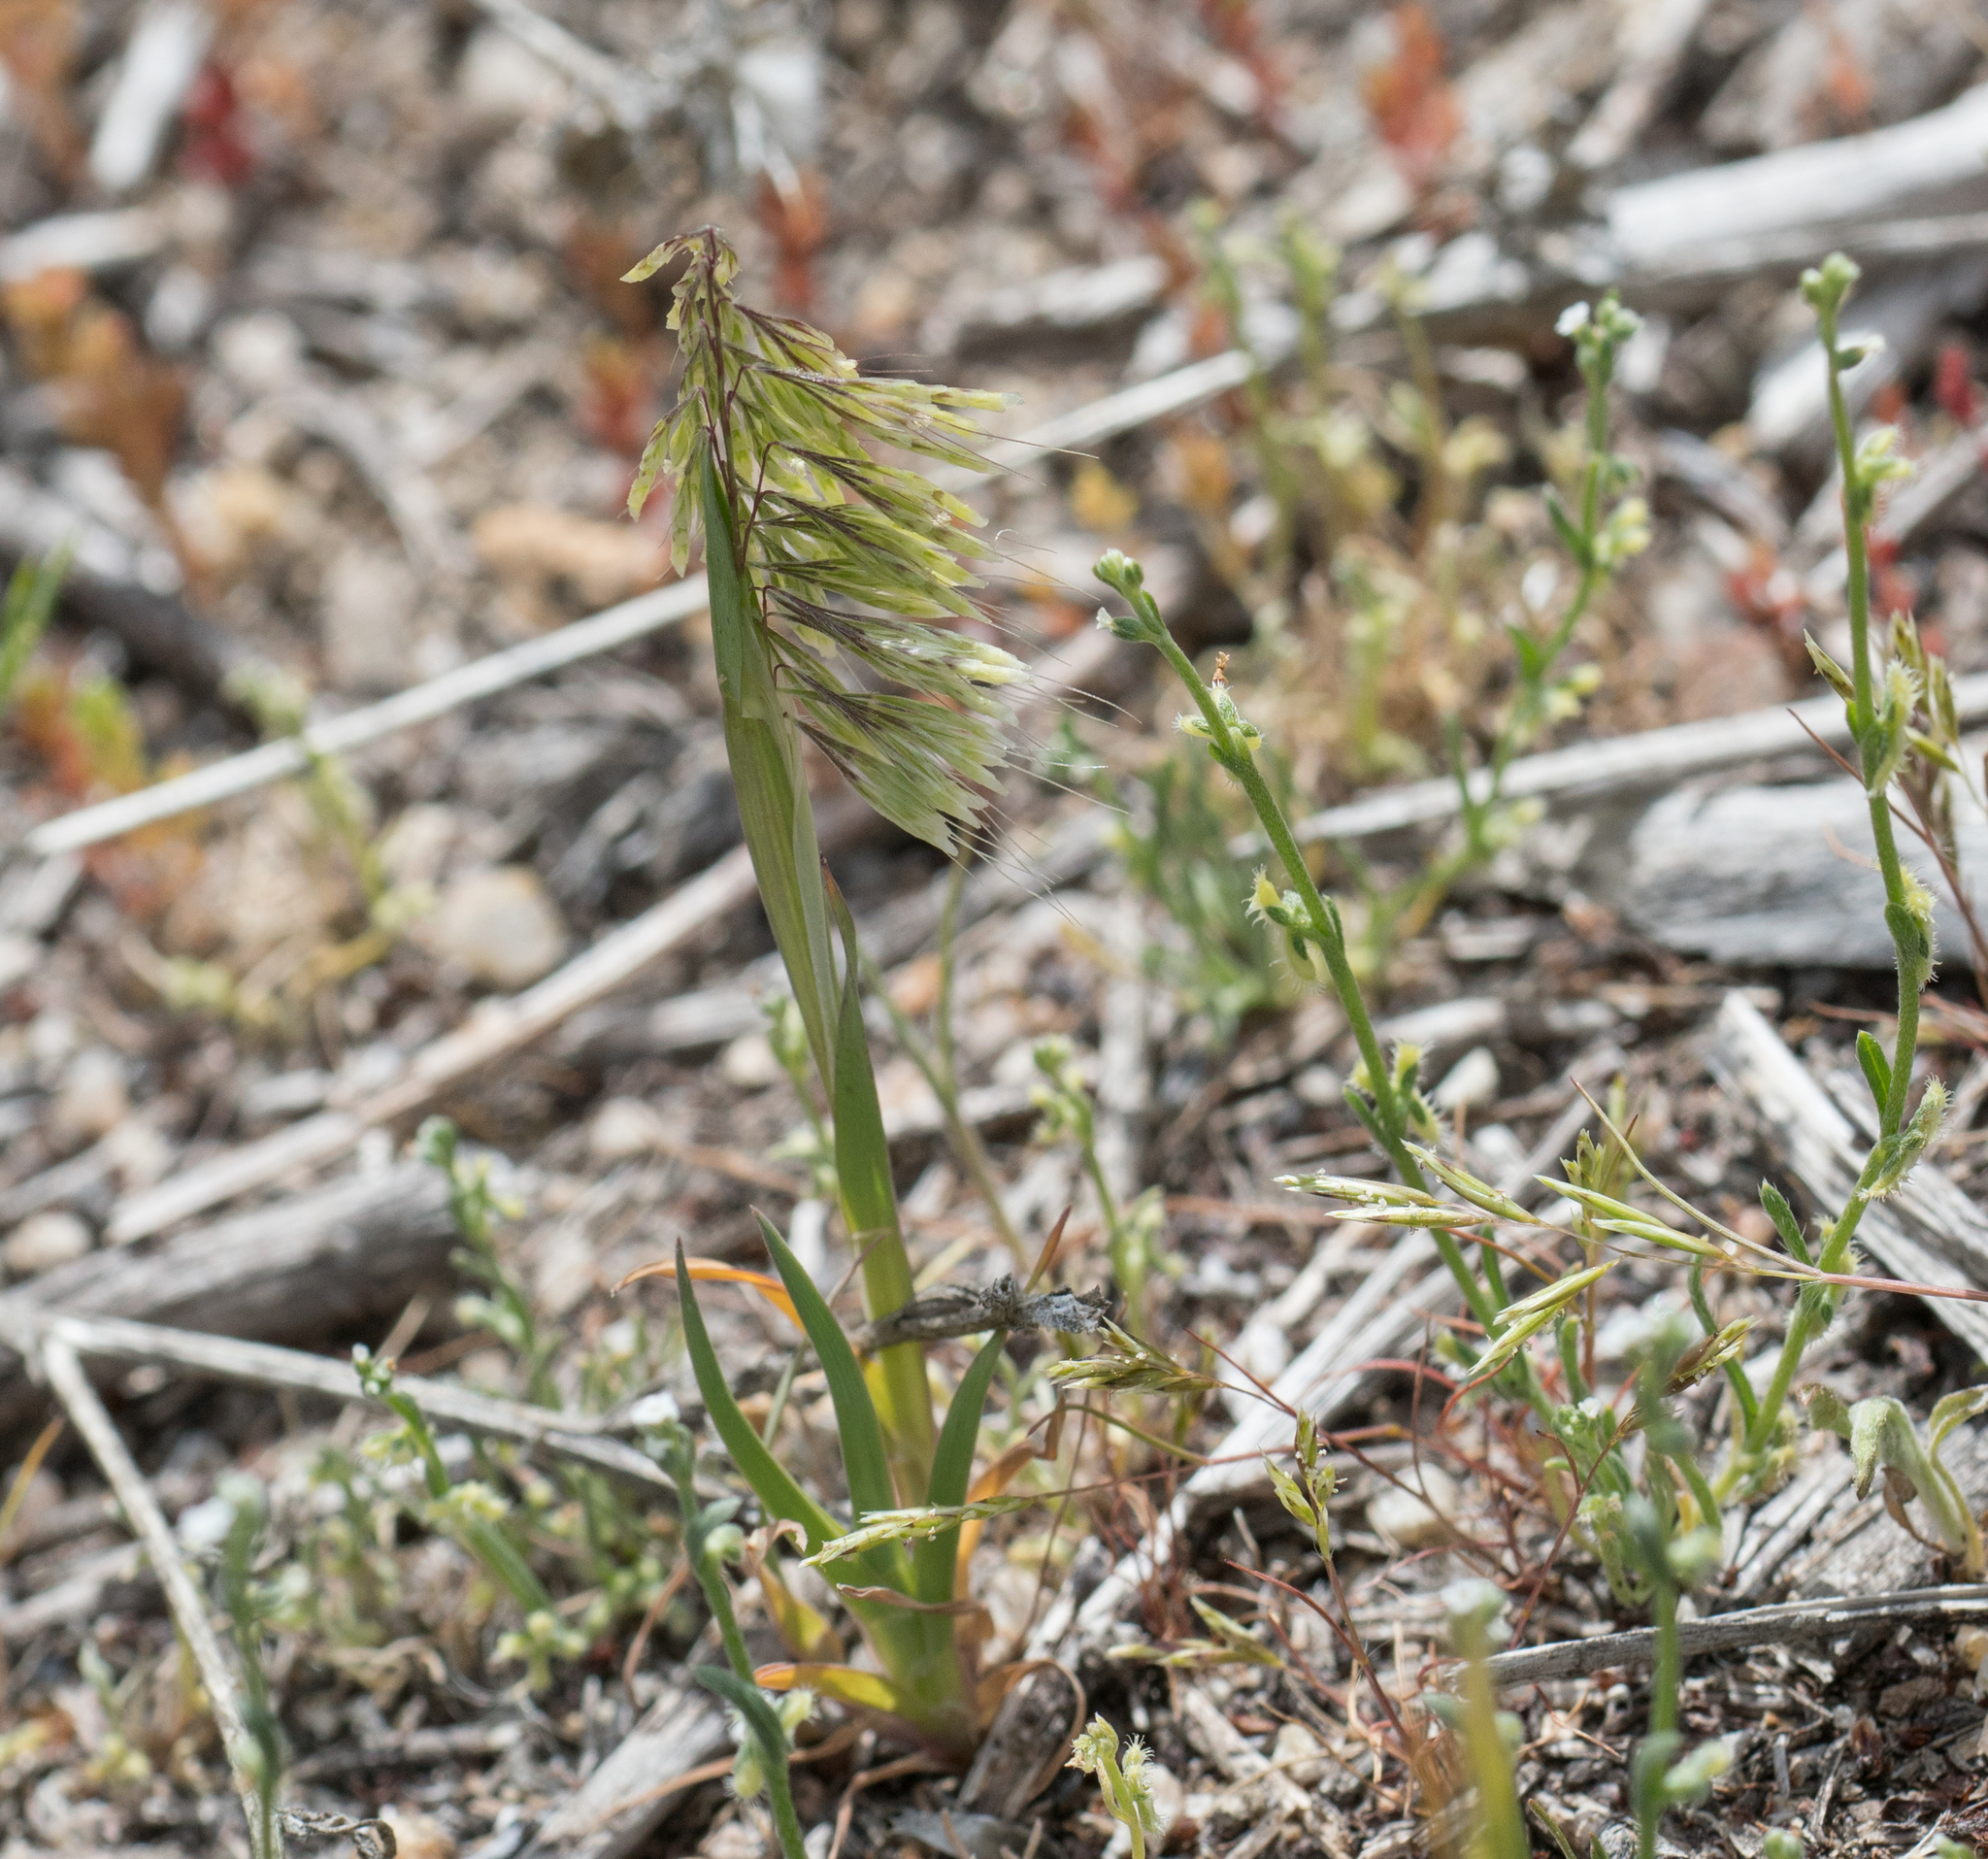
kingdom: Plantae
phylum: Tracheophyta
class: Liliopsida
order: Poales
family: Poaceae
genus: Lamarckia
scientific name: Lamarckia aurea
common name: Golden dog's-tail
